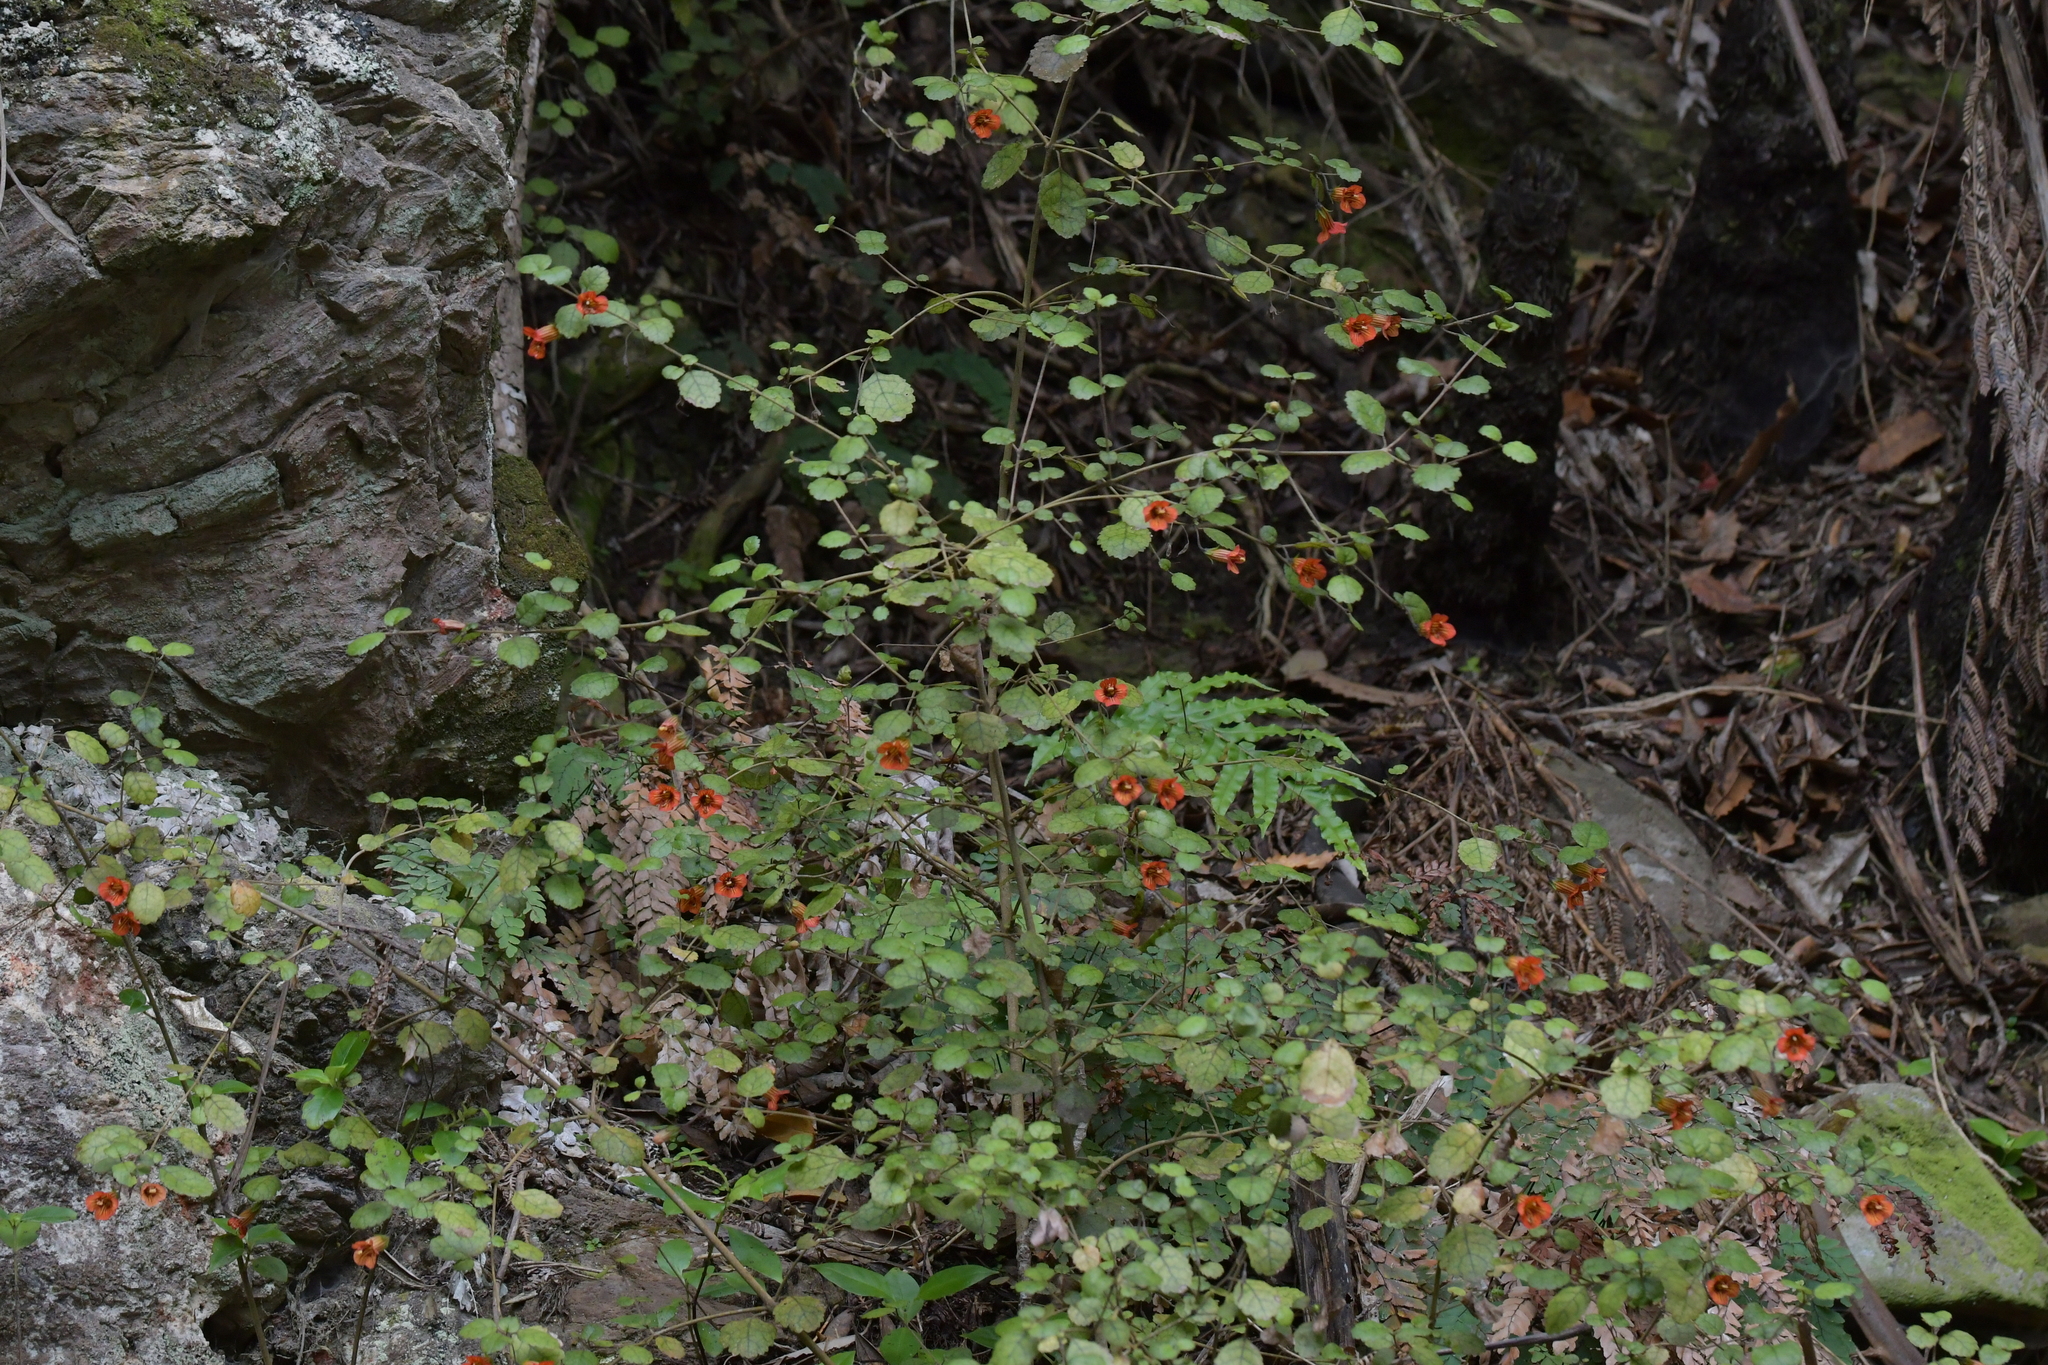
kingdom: Plantae
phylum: Tracheophyta
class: Magnoliopsida
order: Lamiales
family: Gesneriaceae
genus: Rhabdothamnus
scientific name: Rhabdothamnus solandri
